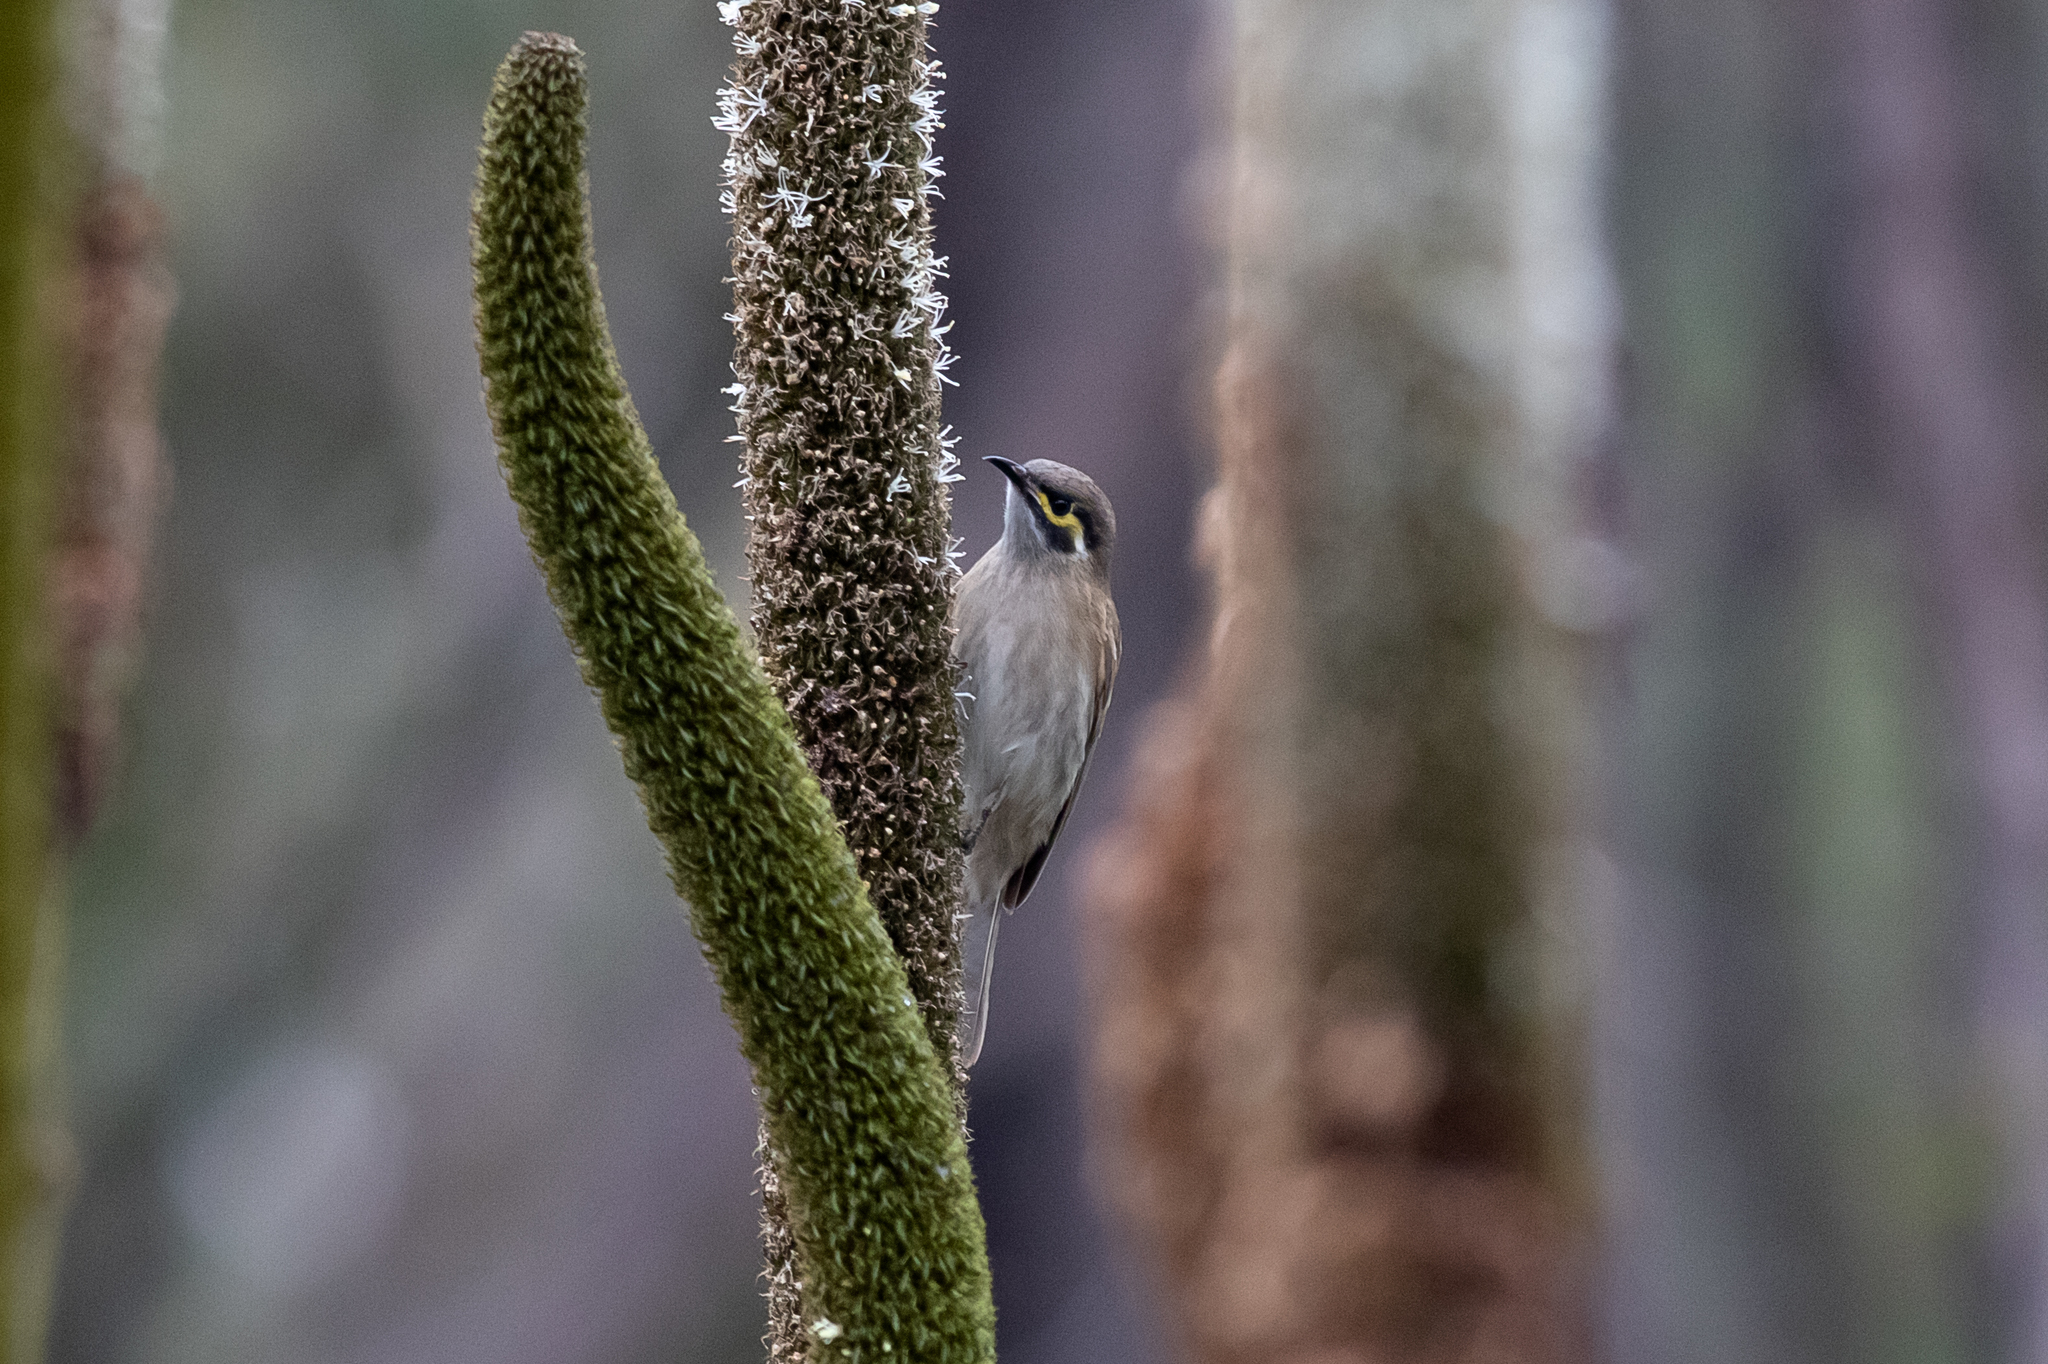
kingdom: Animalia
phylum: Chordata
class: Aves
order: Passeriformes
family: Meliphagidae
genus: Caligavis
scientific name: Caligavis chrysops
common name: Yellow-faced honeyeater
